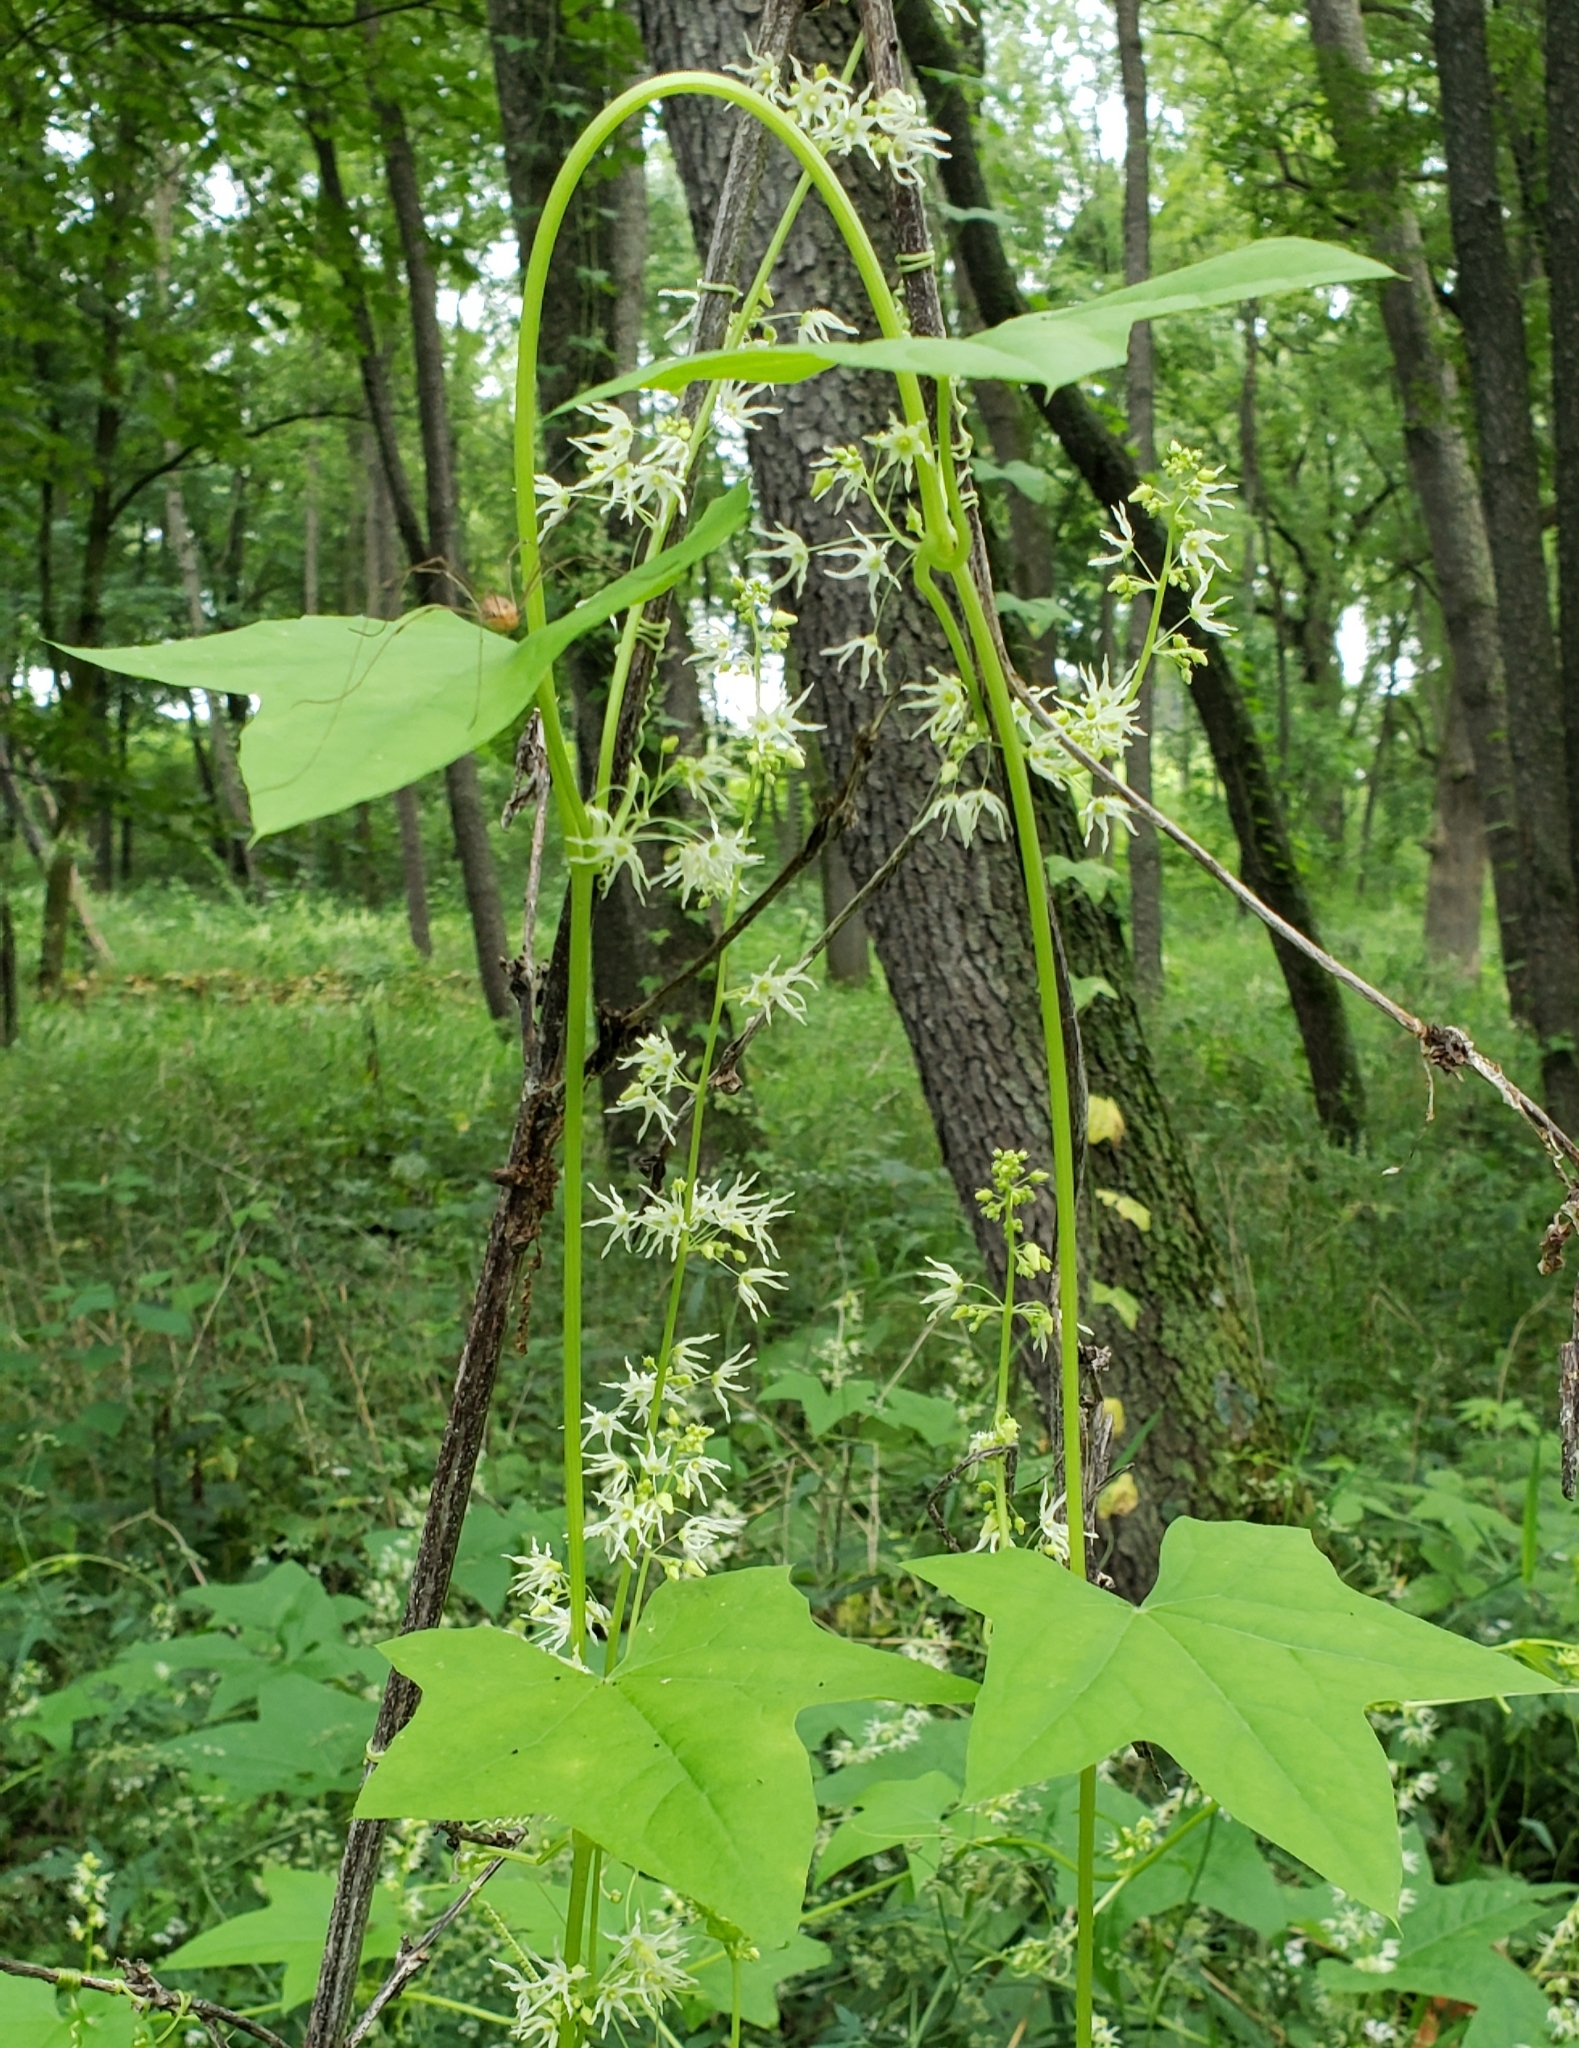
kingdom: Plantae
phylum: Tracheophyta
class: Magnoliopsida
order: Cucurbitales
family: Cucurbitaceae
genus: Echinocystis
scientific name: Echinocystis lobata
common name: Wild cucumber
